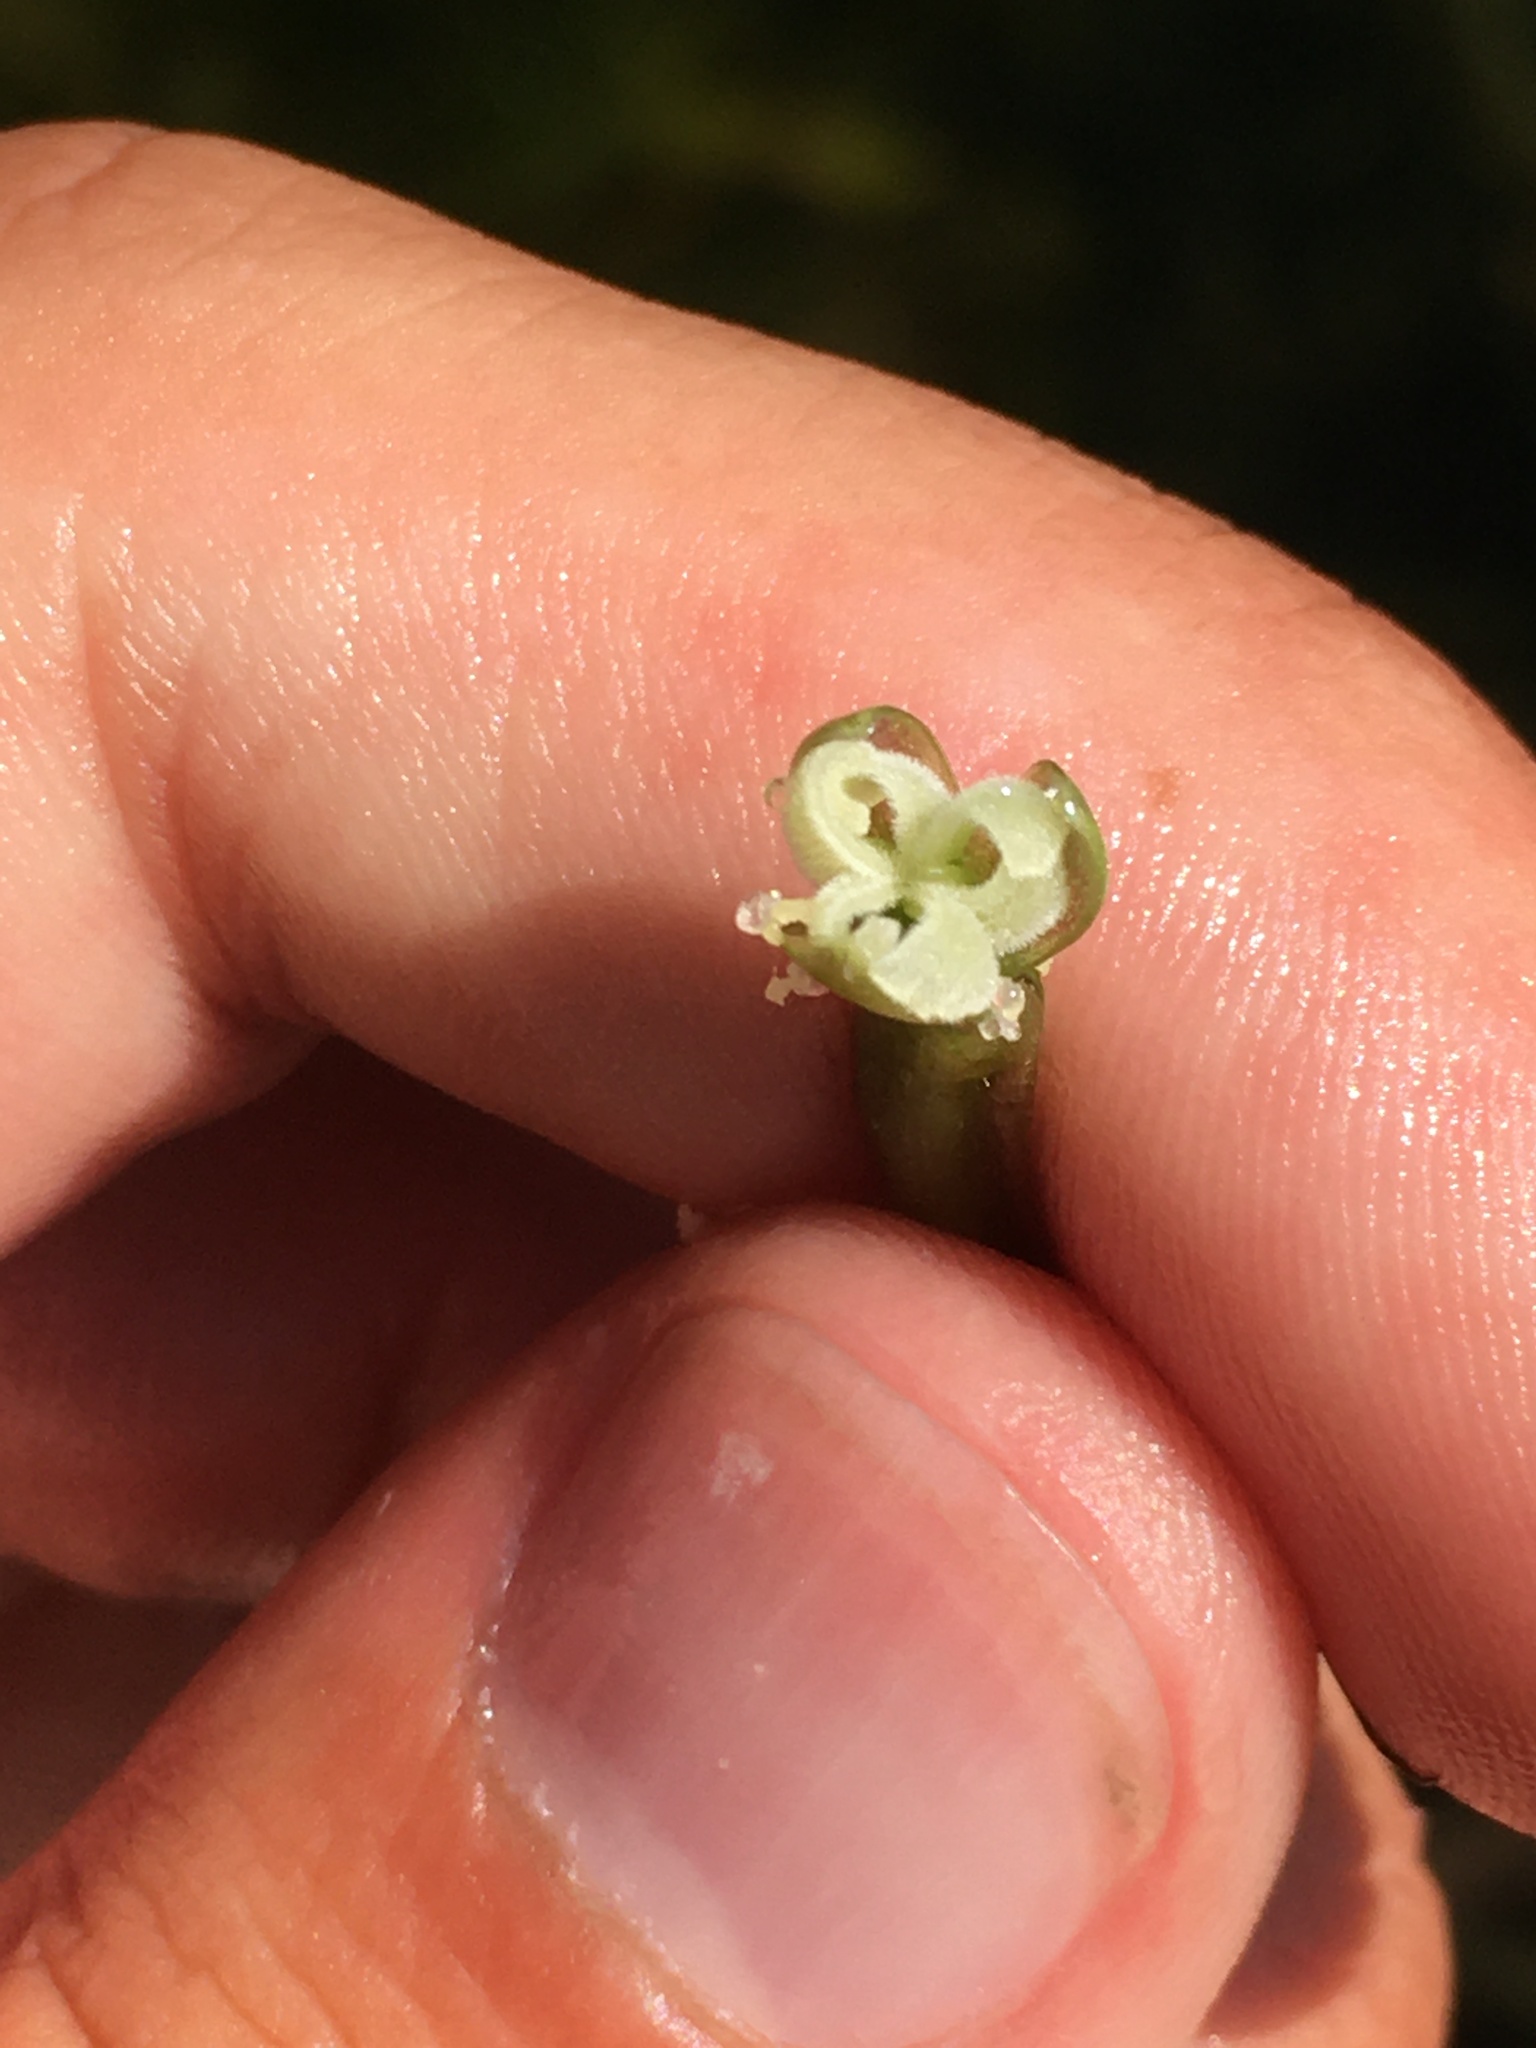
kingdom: Plantae
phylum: Tracheophyta
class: Liliopsida
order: Alismatales
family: Hydrocharitaceae
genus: Vallisneria
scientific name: Vallisneria americana
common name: American eelgrass
